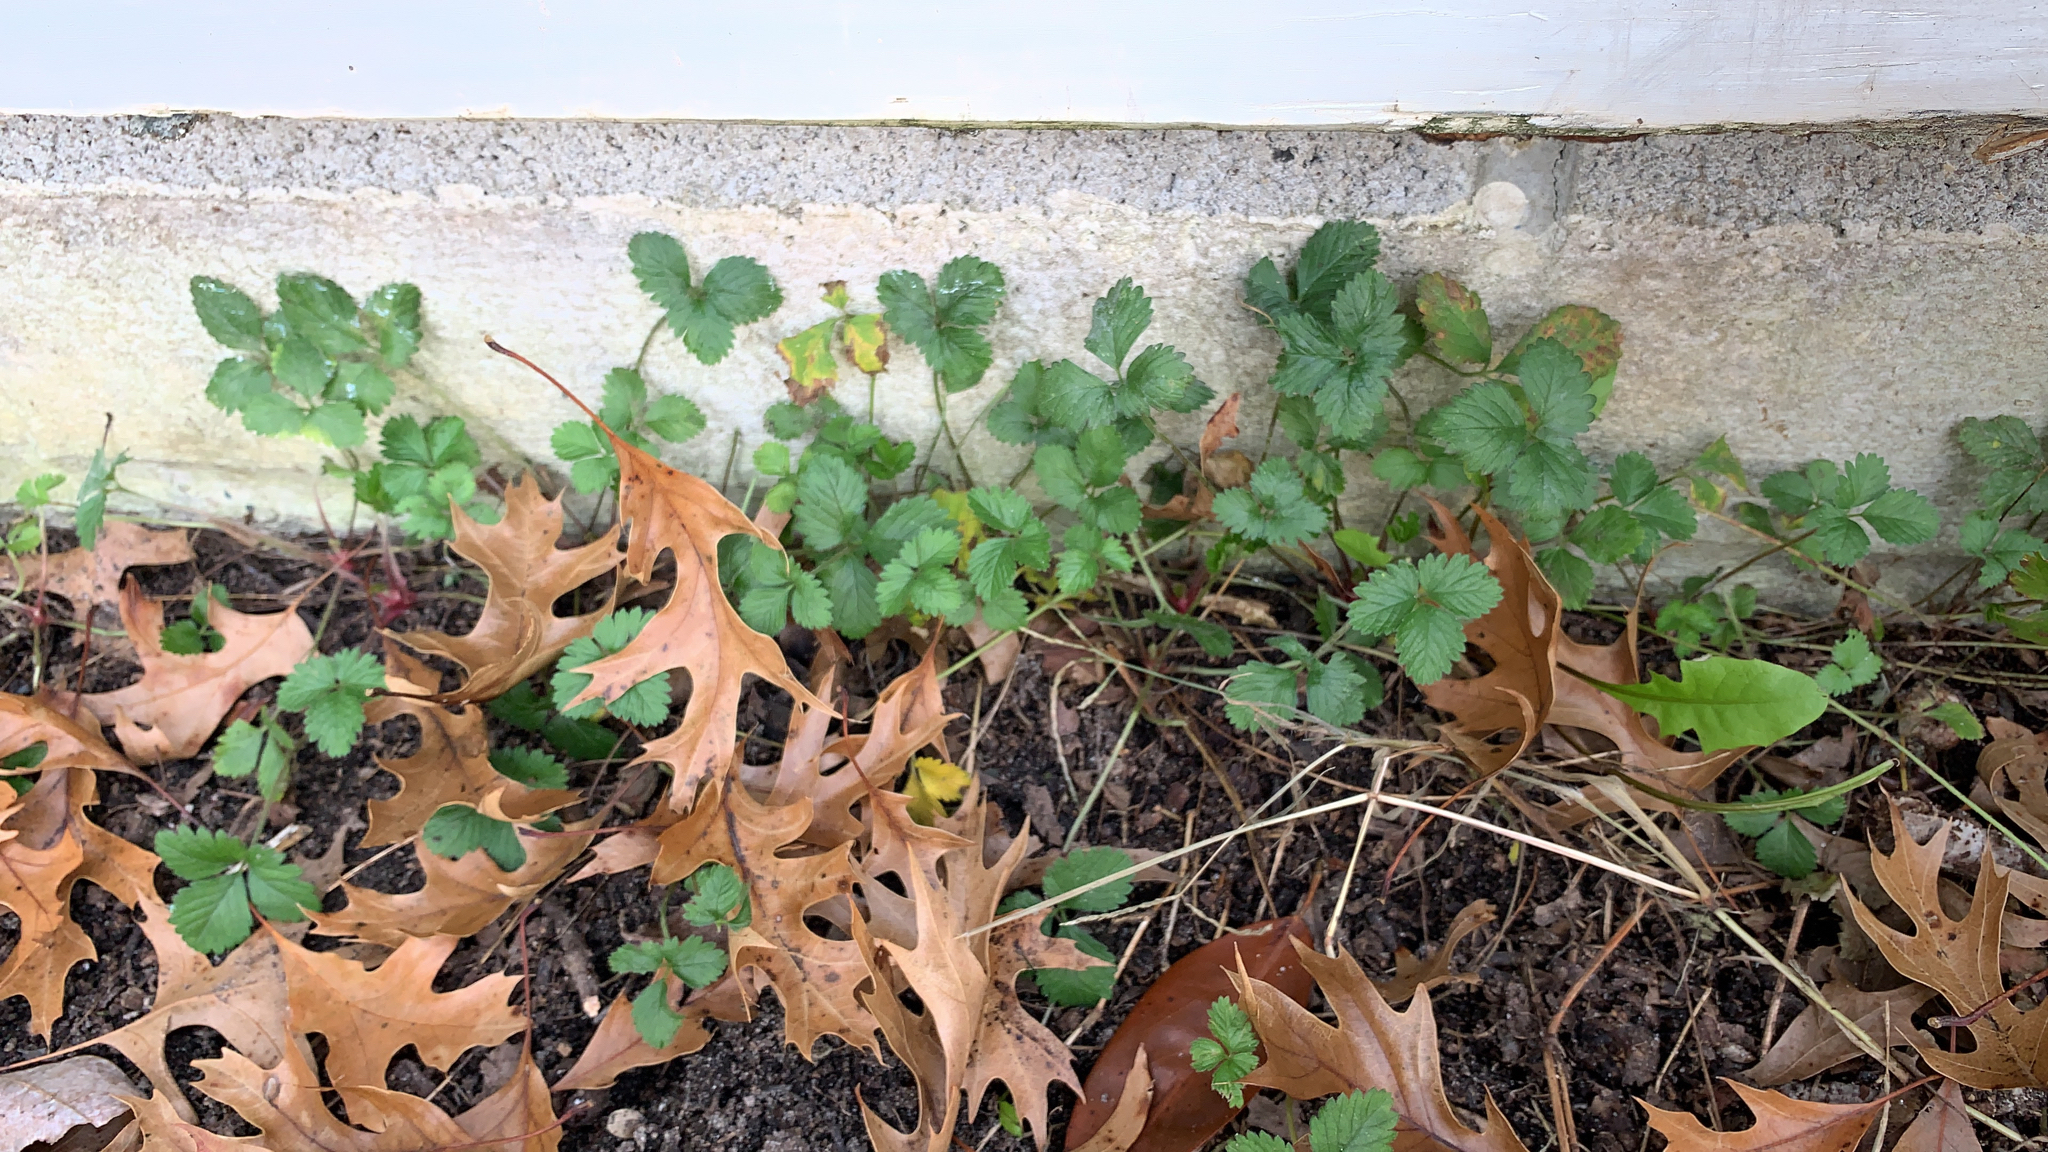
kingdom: Plantae
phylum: Tracheophyta
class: Magnoliopsida
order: Rosales
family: Rosaceae
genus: Potentilla
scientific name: Potentilla indica
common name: Yellow-flowered strawberry
